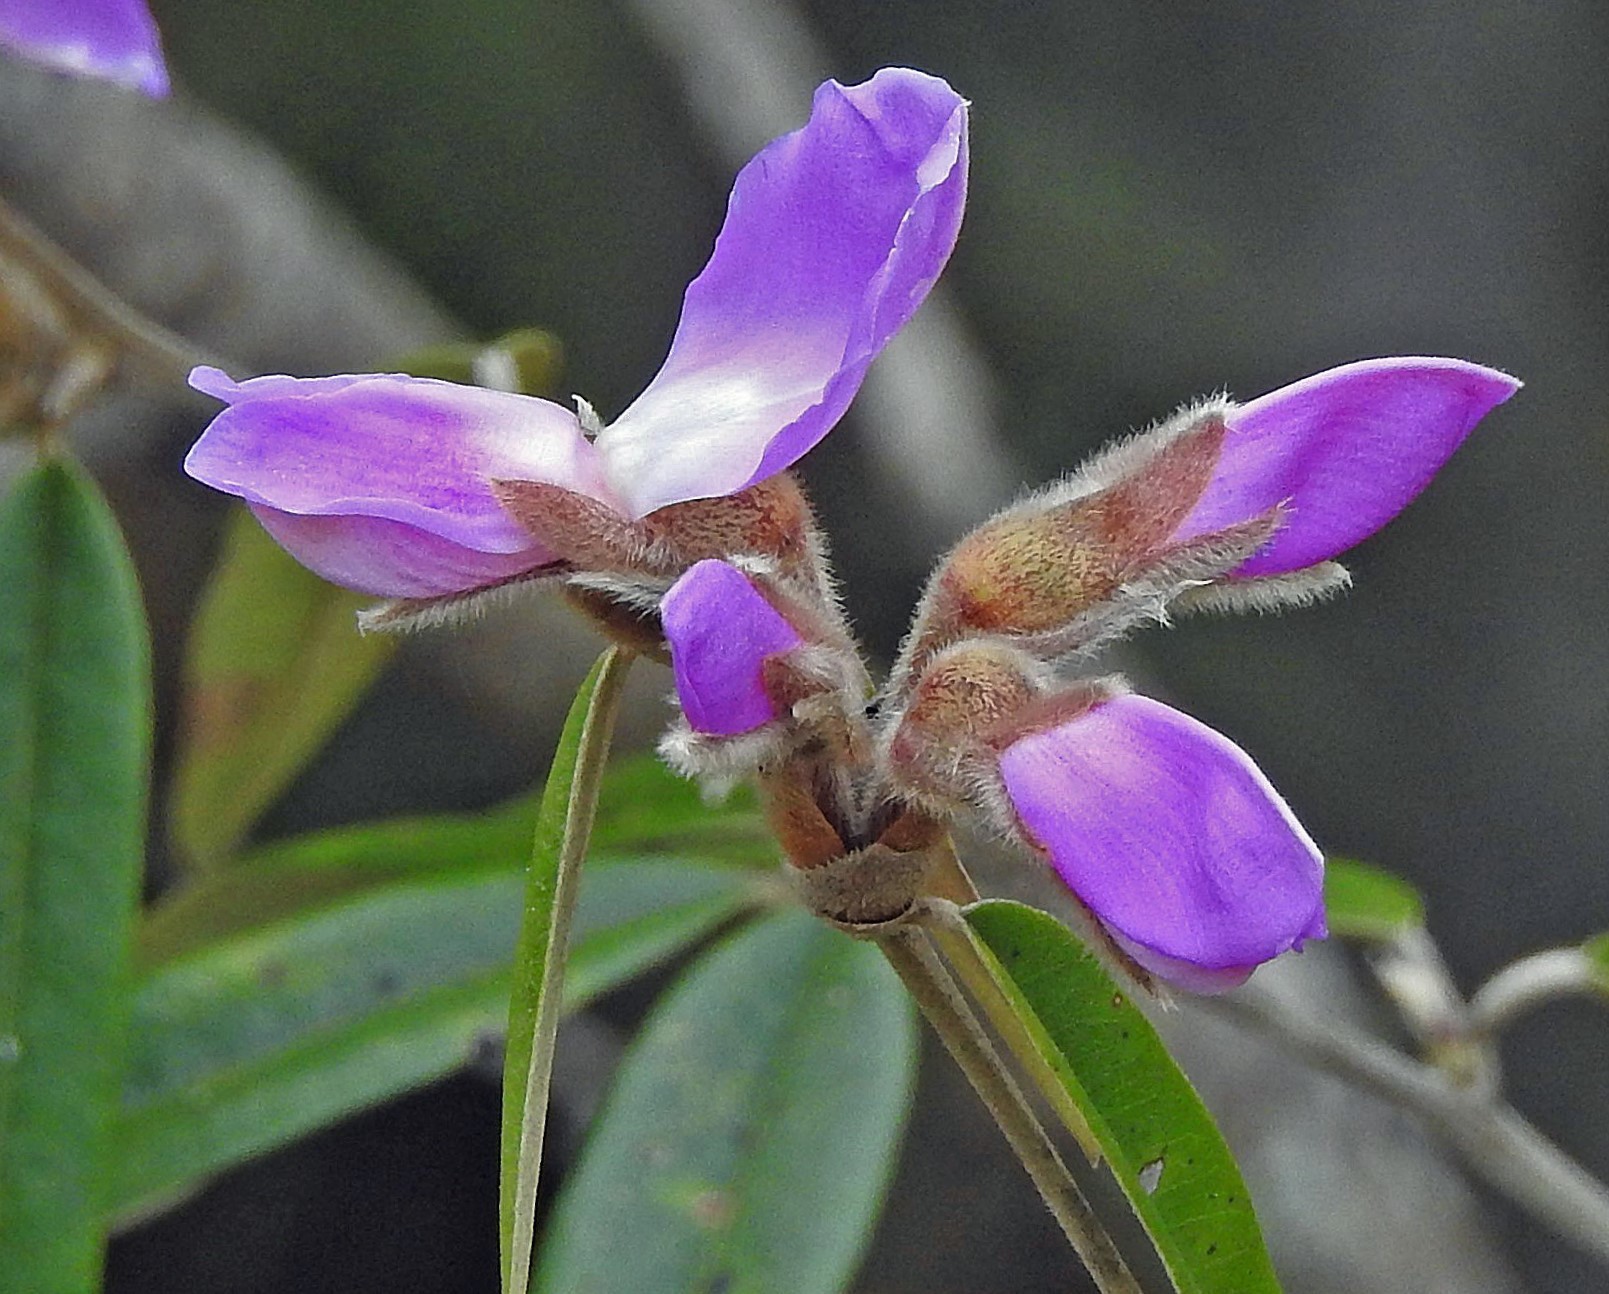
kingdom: Plantae
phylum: Tracheophyta
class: Magnoliopsida
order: Fabales
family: Fabaceae
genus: Nanogalactia
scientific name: Nanogalactia heterophylla
